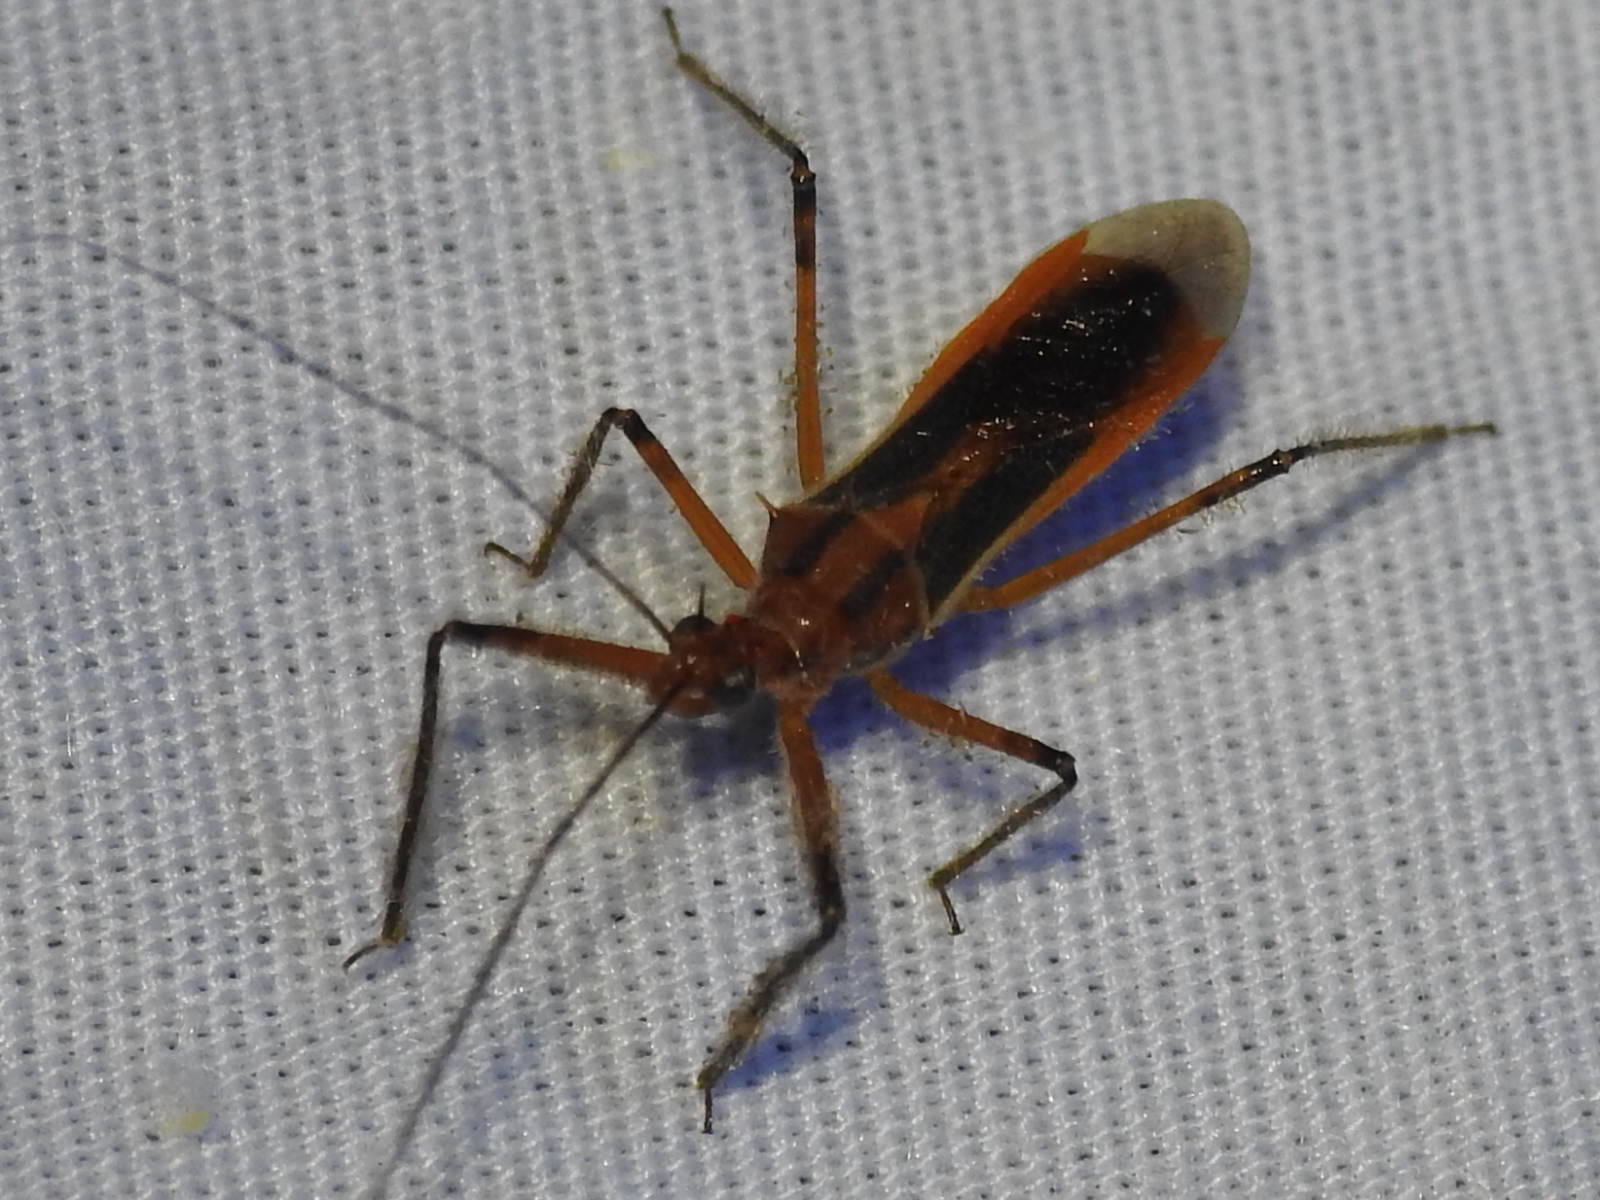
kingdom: Animalia
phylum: Arthropoda
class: Insecta
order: Hemiptera
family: Reduviidae
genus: Repipta
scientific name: Repipta taurus
